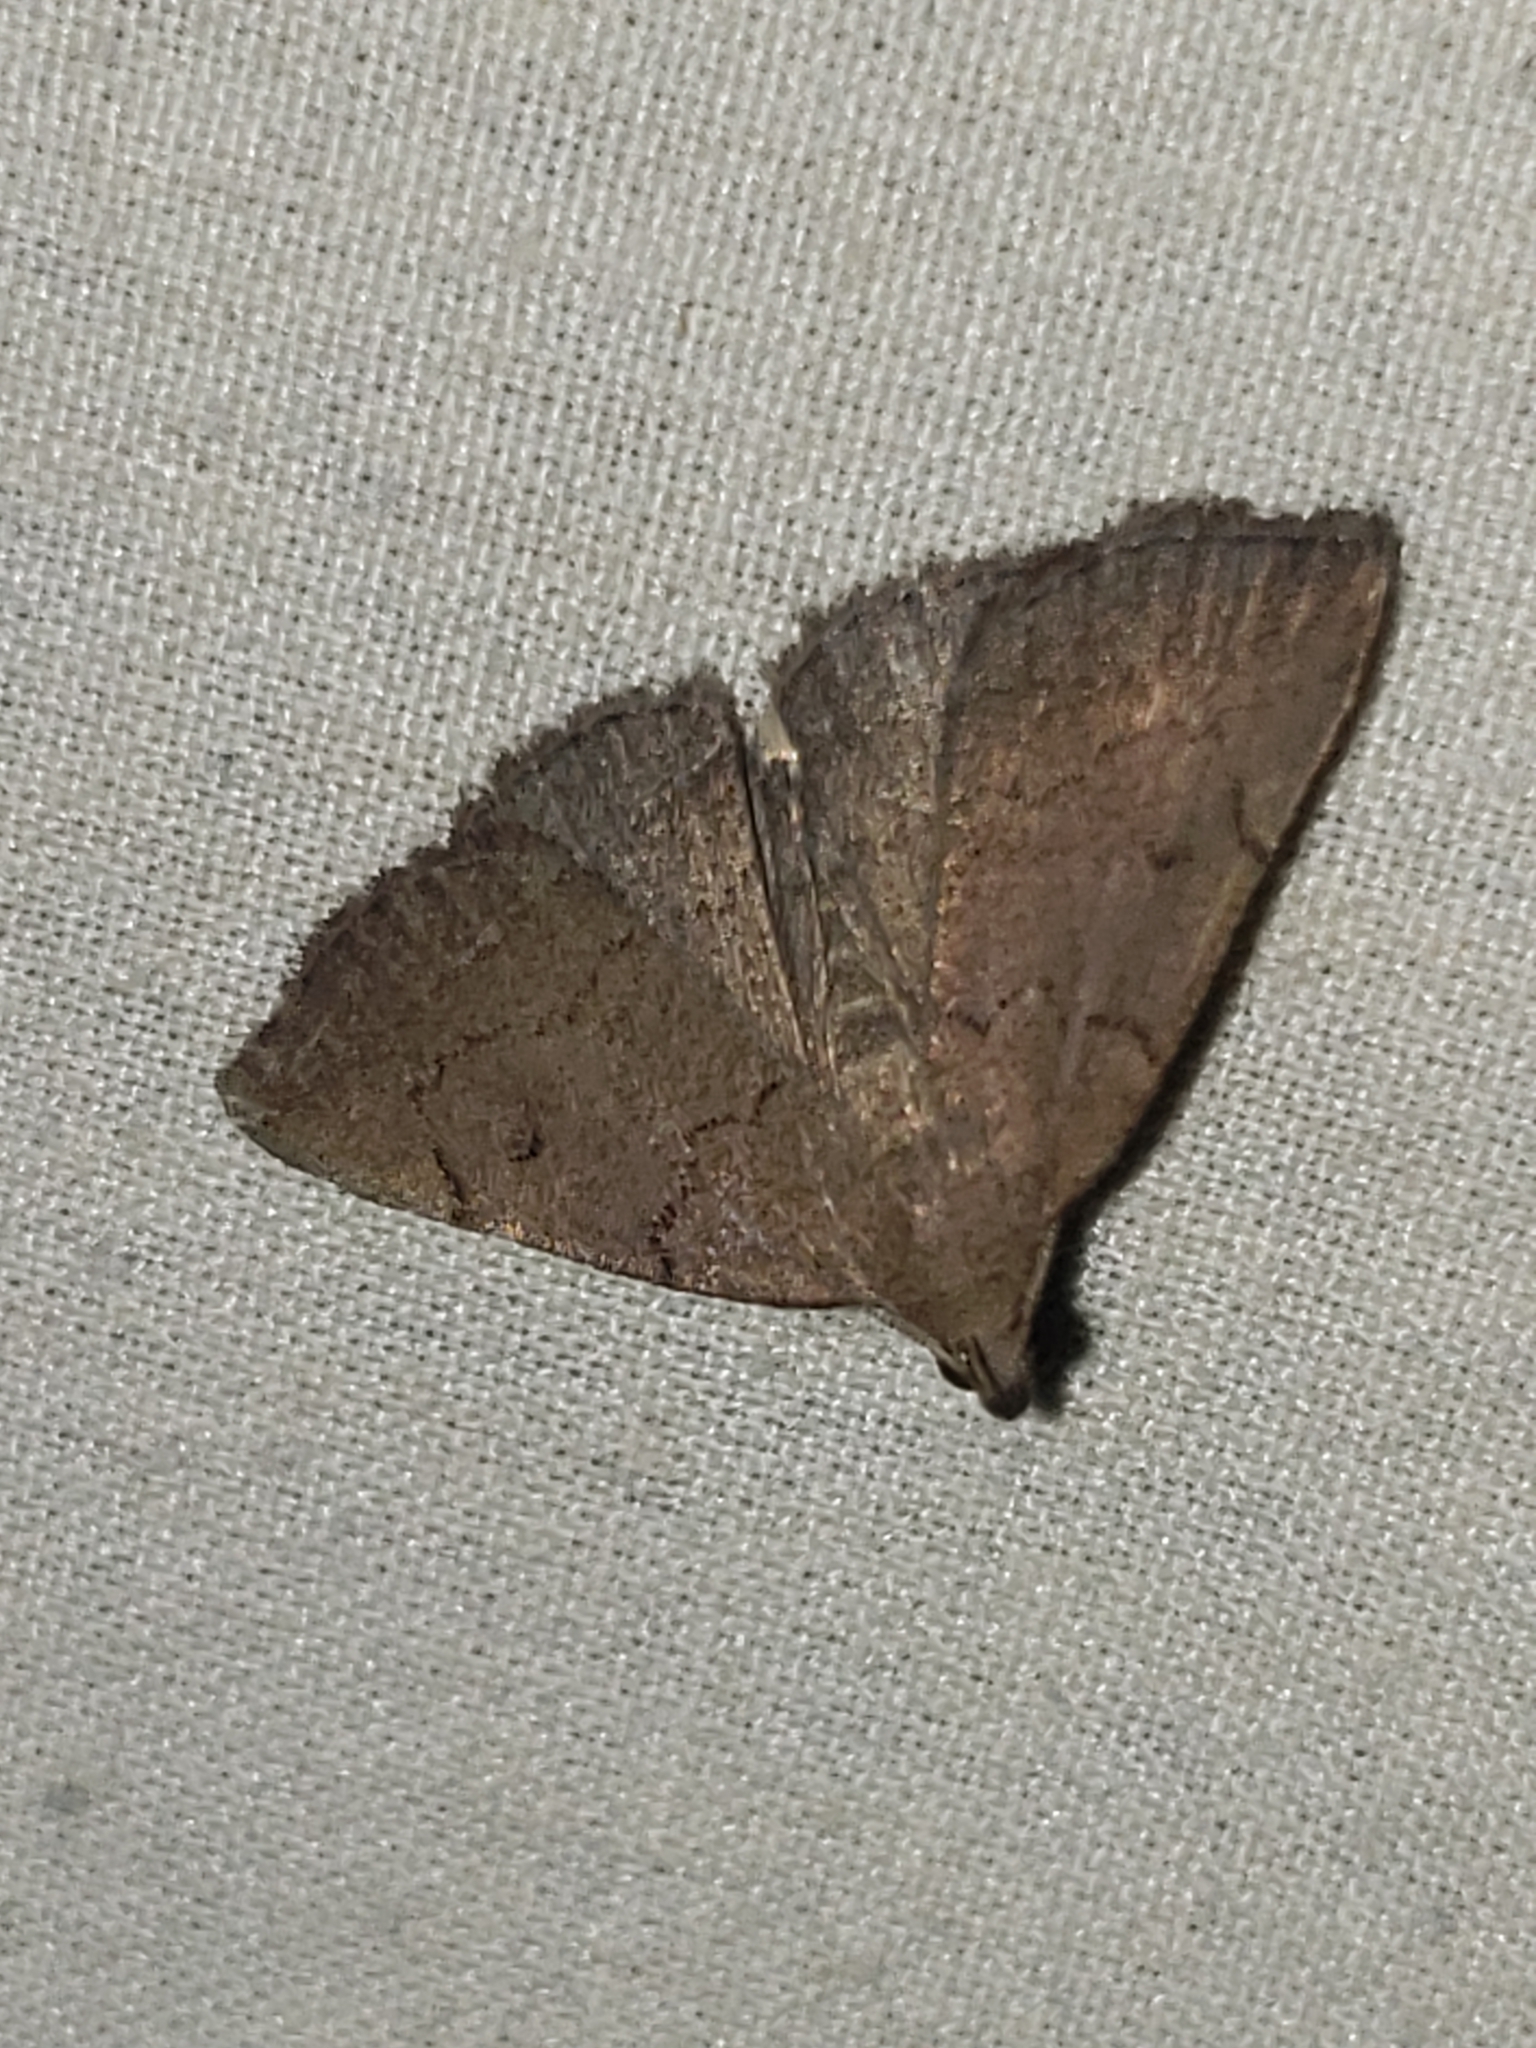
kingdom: Animalia
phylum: Arthropoda
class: Insecta
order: Lepidoptera
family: Erebidae
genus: Zanclognatha
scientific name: Zanclognatha protumnusalis
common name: Complex fan-foot
